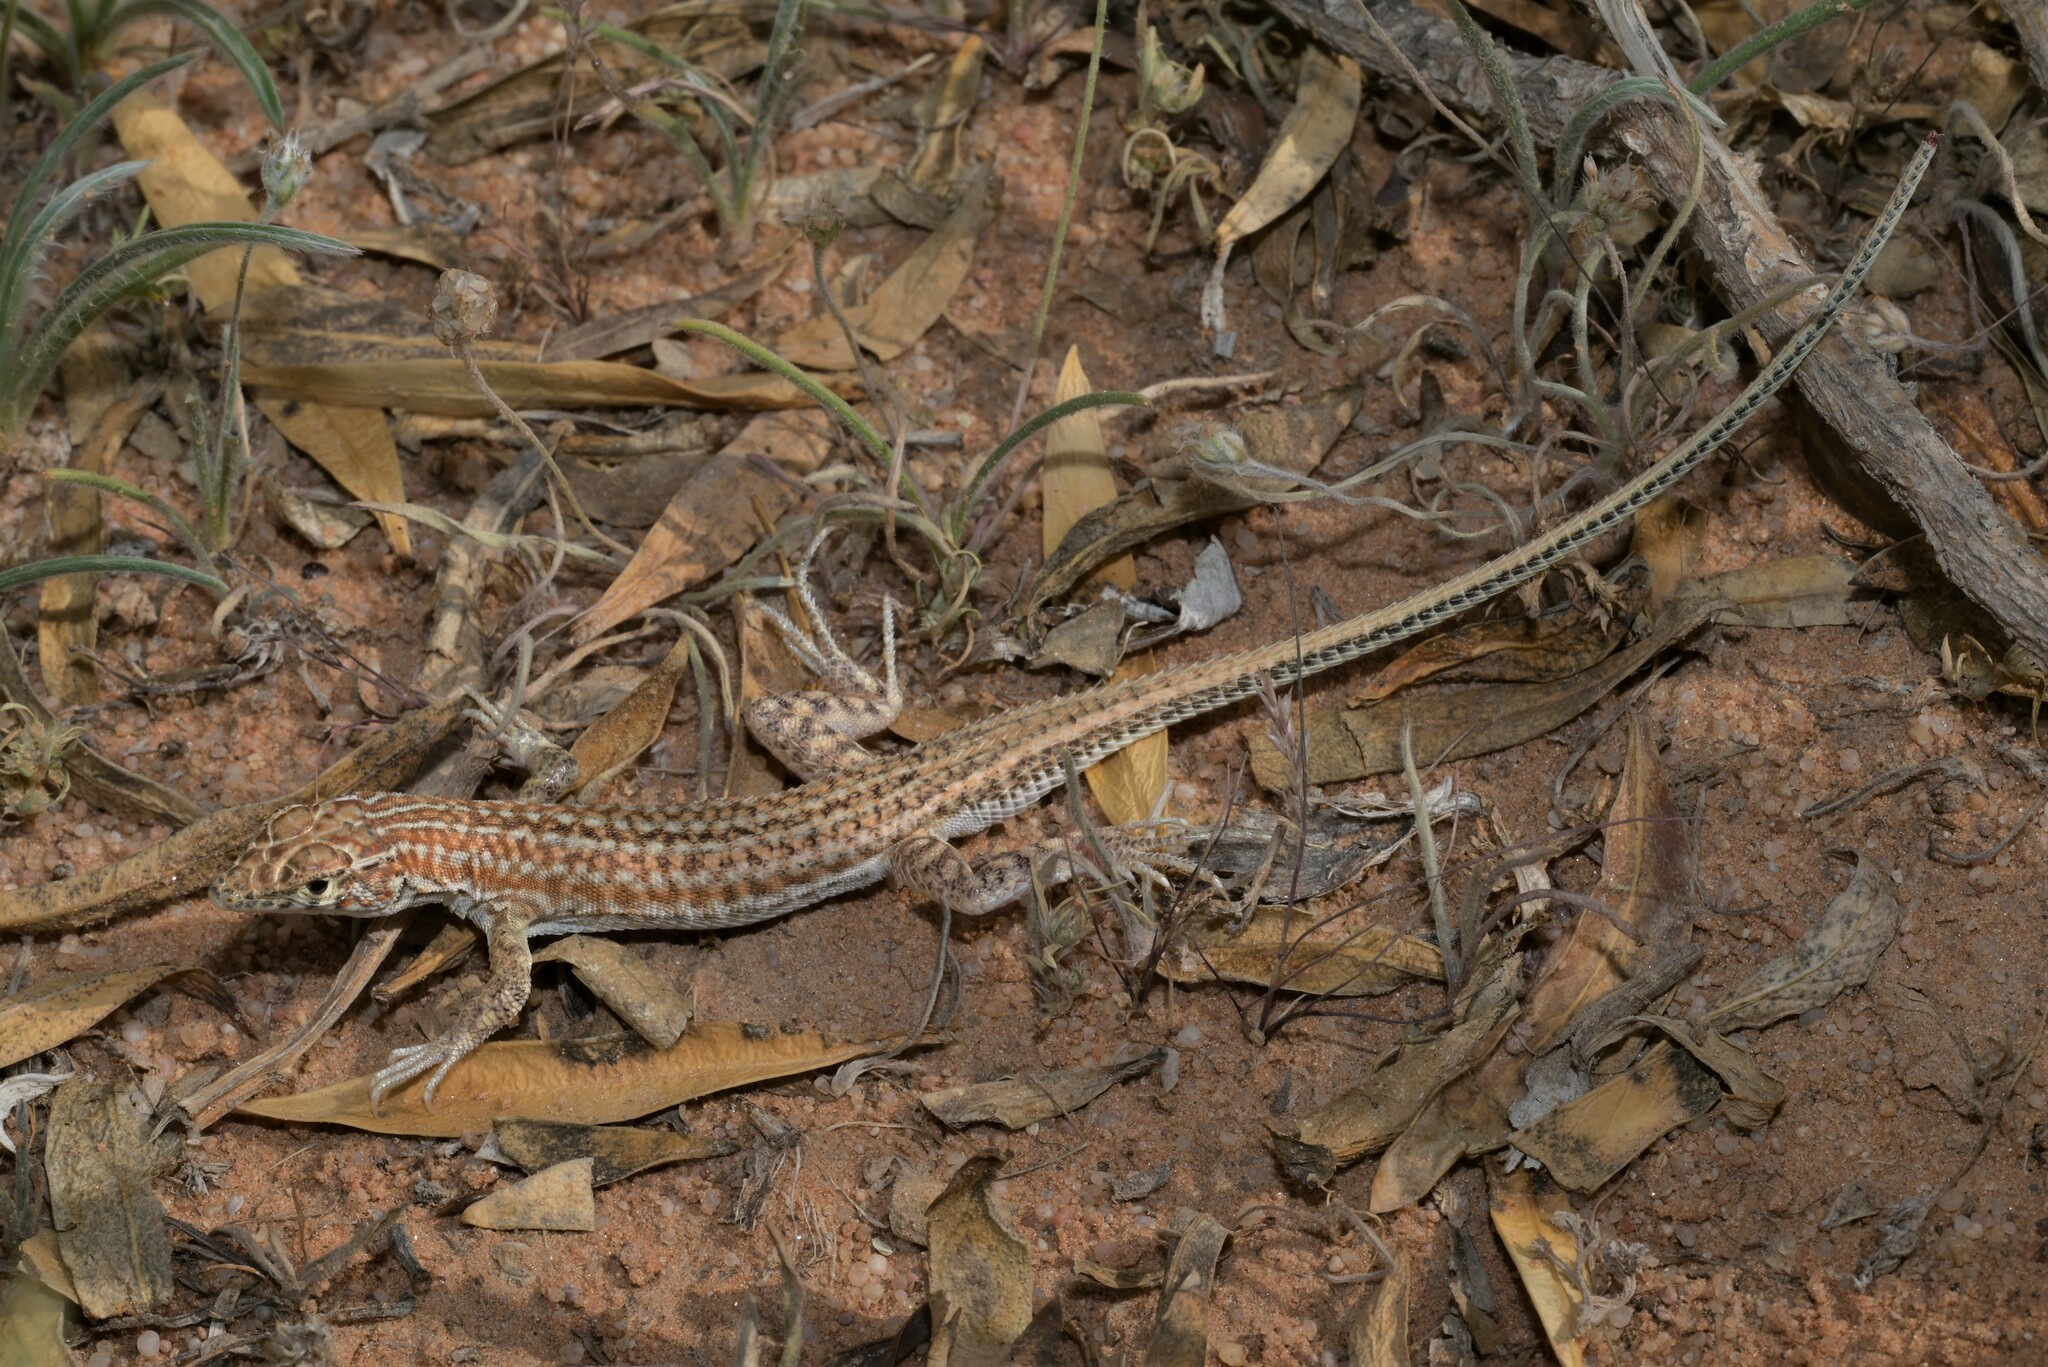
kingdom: Animalia
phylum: Chordata
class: Squamata
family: Lacertidae
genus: Acanthodactylus
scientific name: Acanthodactylus opheodurus
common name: Arnold's fringe-fingered lizard
